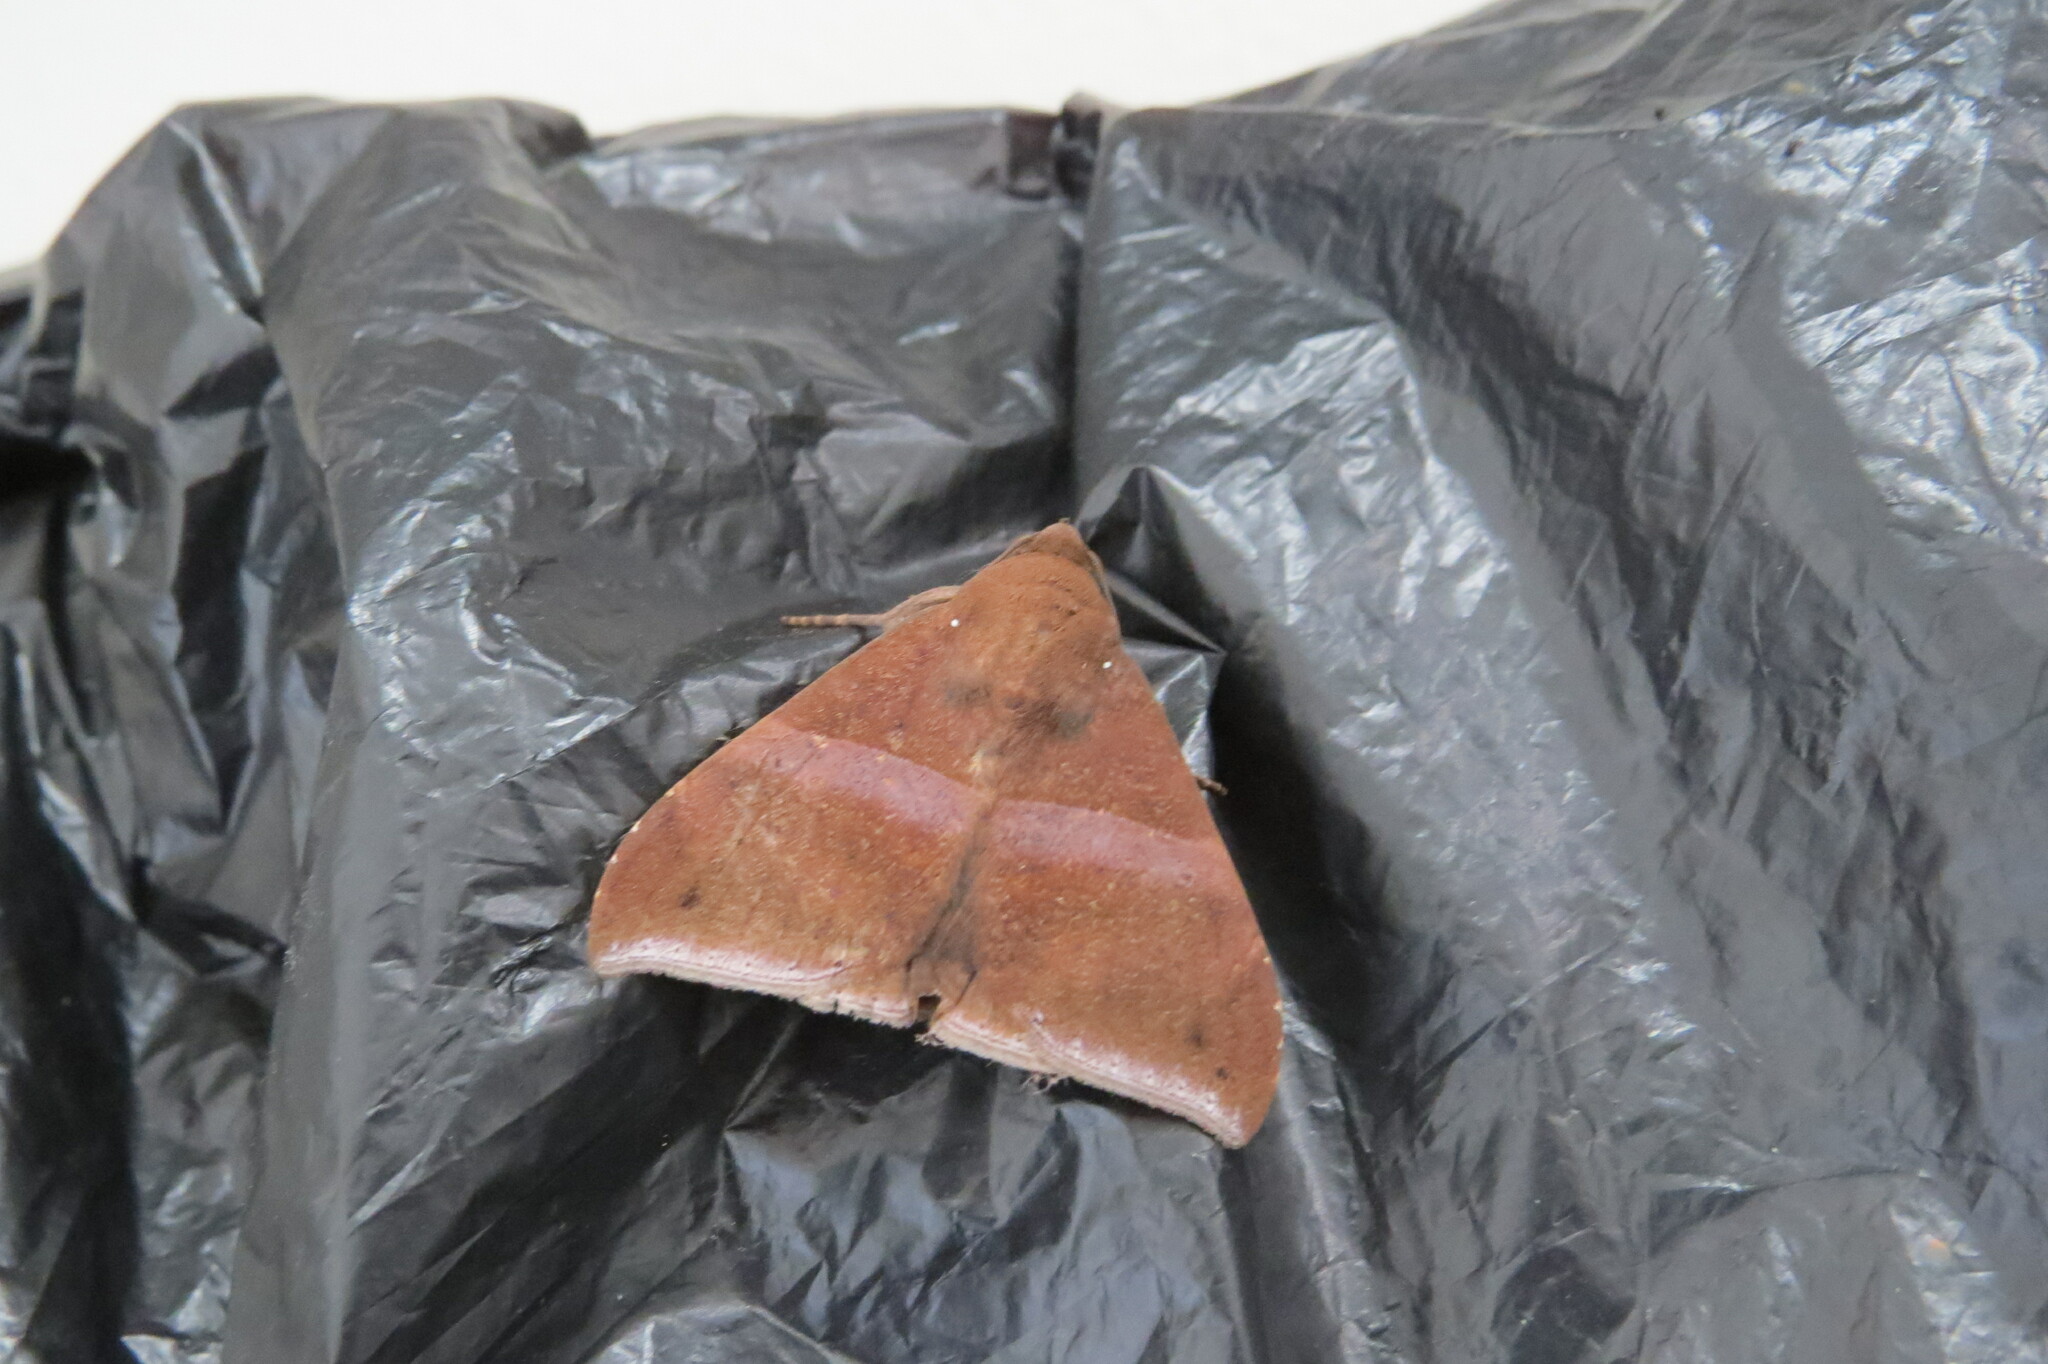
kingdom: Animalia
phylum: Arthropoda
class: Insecta
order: Lepidoptera
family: Erebidae
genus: Ophisma
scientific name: Ophisma tropicalis
